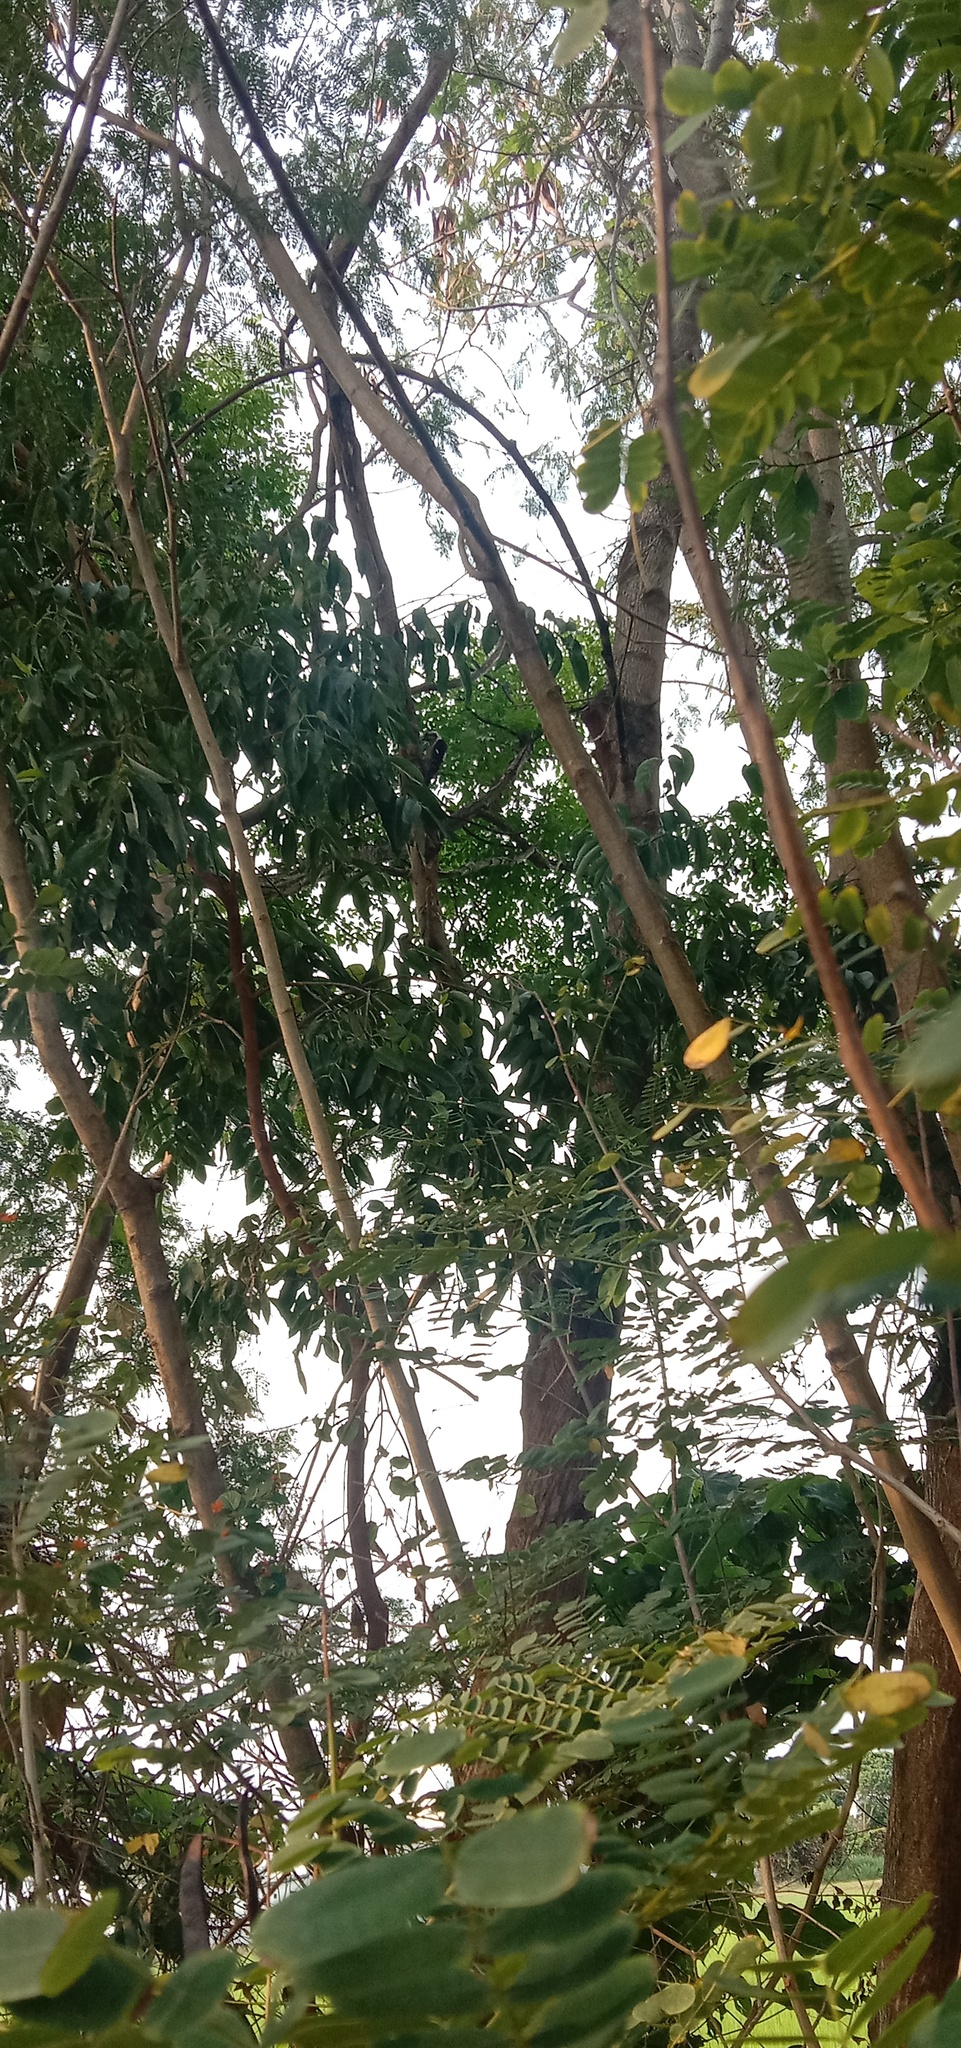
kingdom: Animalia
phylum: Chordata
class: Aves
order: Piciformes
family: Picidae
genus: Yungipicus
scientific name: Yungipicus canicapillus
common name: Grey-capped pygmy woodpecker
